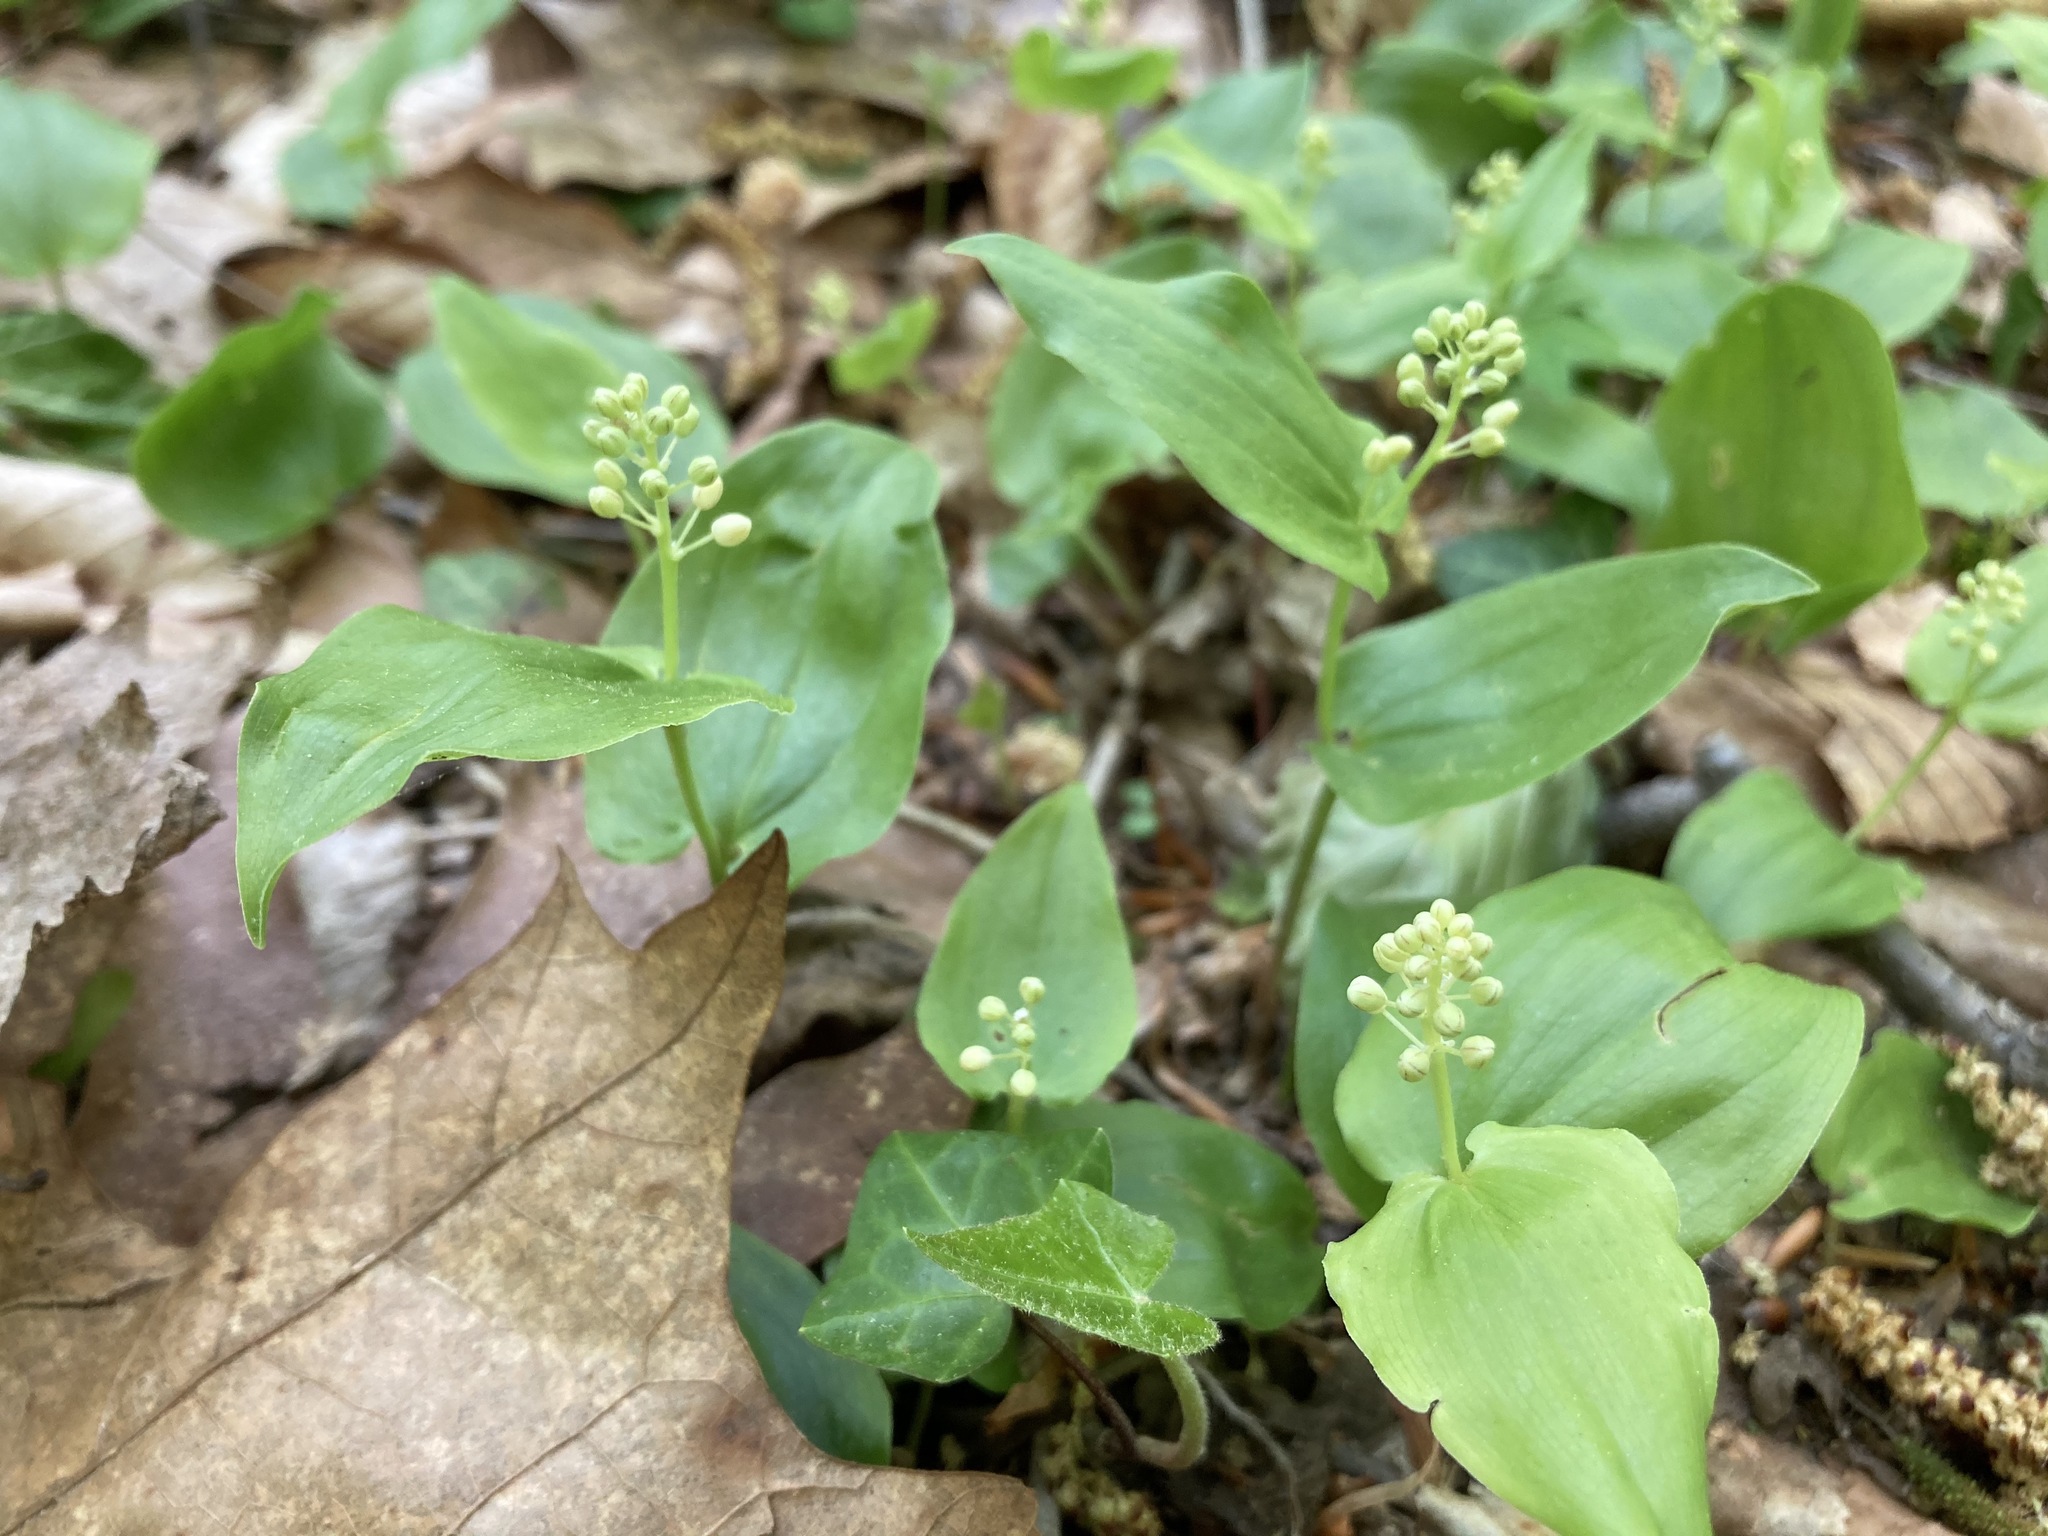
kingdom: Plantae
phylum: Tracheophyta
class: Liliopsida
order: Asparagales
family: Asparagaceae
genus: Maianthemum
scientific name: Maianthemum canadense
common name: False lily-of-the-valley
